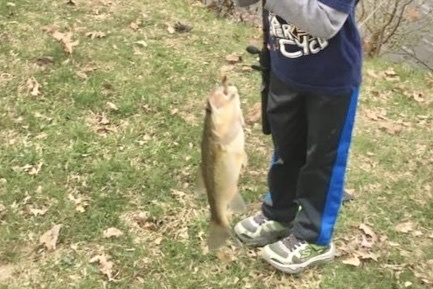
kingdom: Animalia
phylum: Chordata
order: Perciformes
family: Centrarchidae
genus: Micropterus
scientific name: Micropterus
